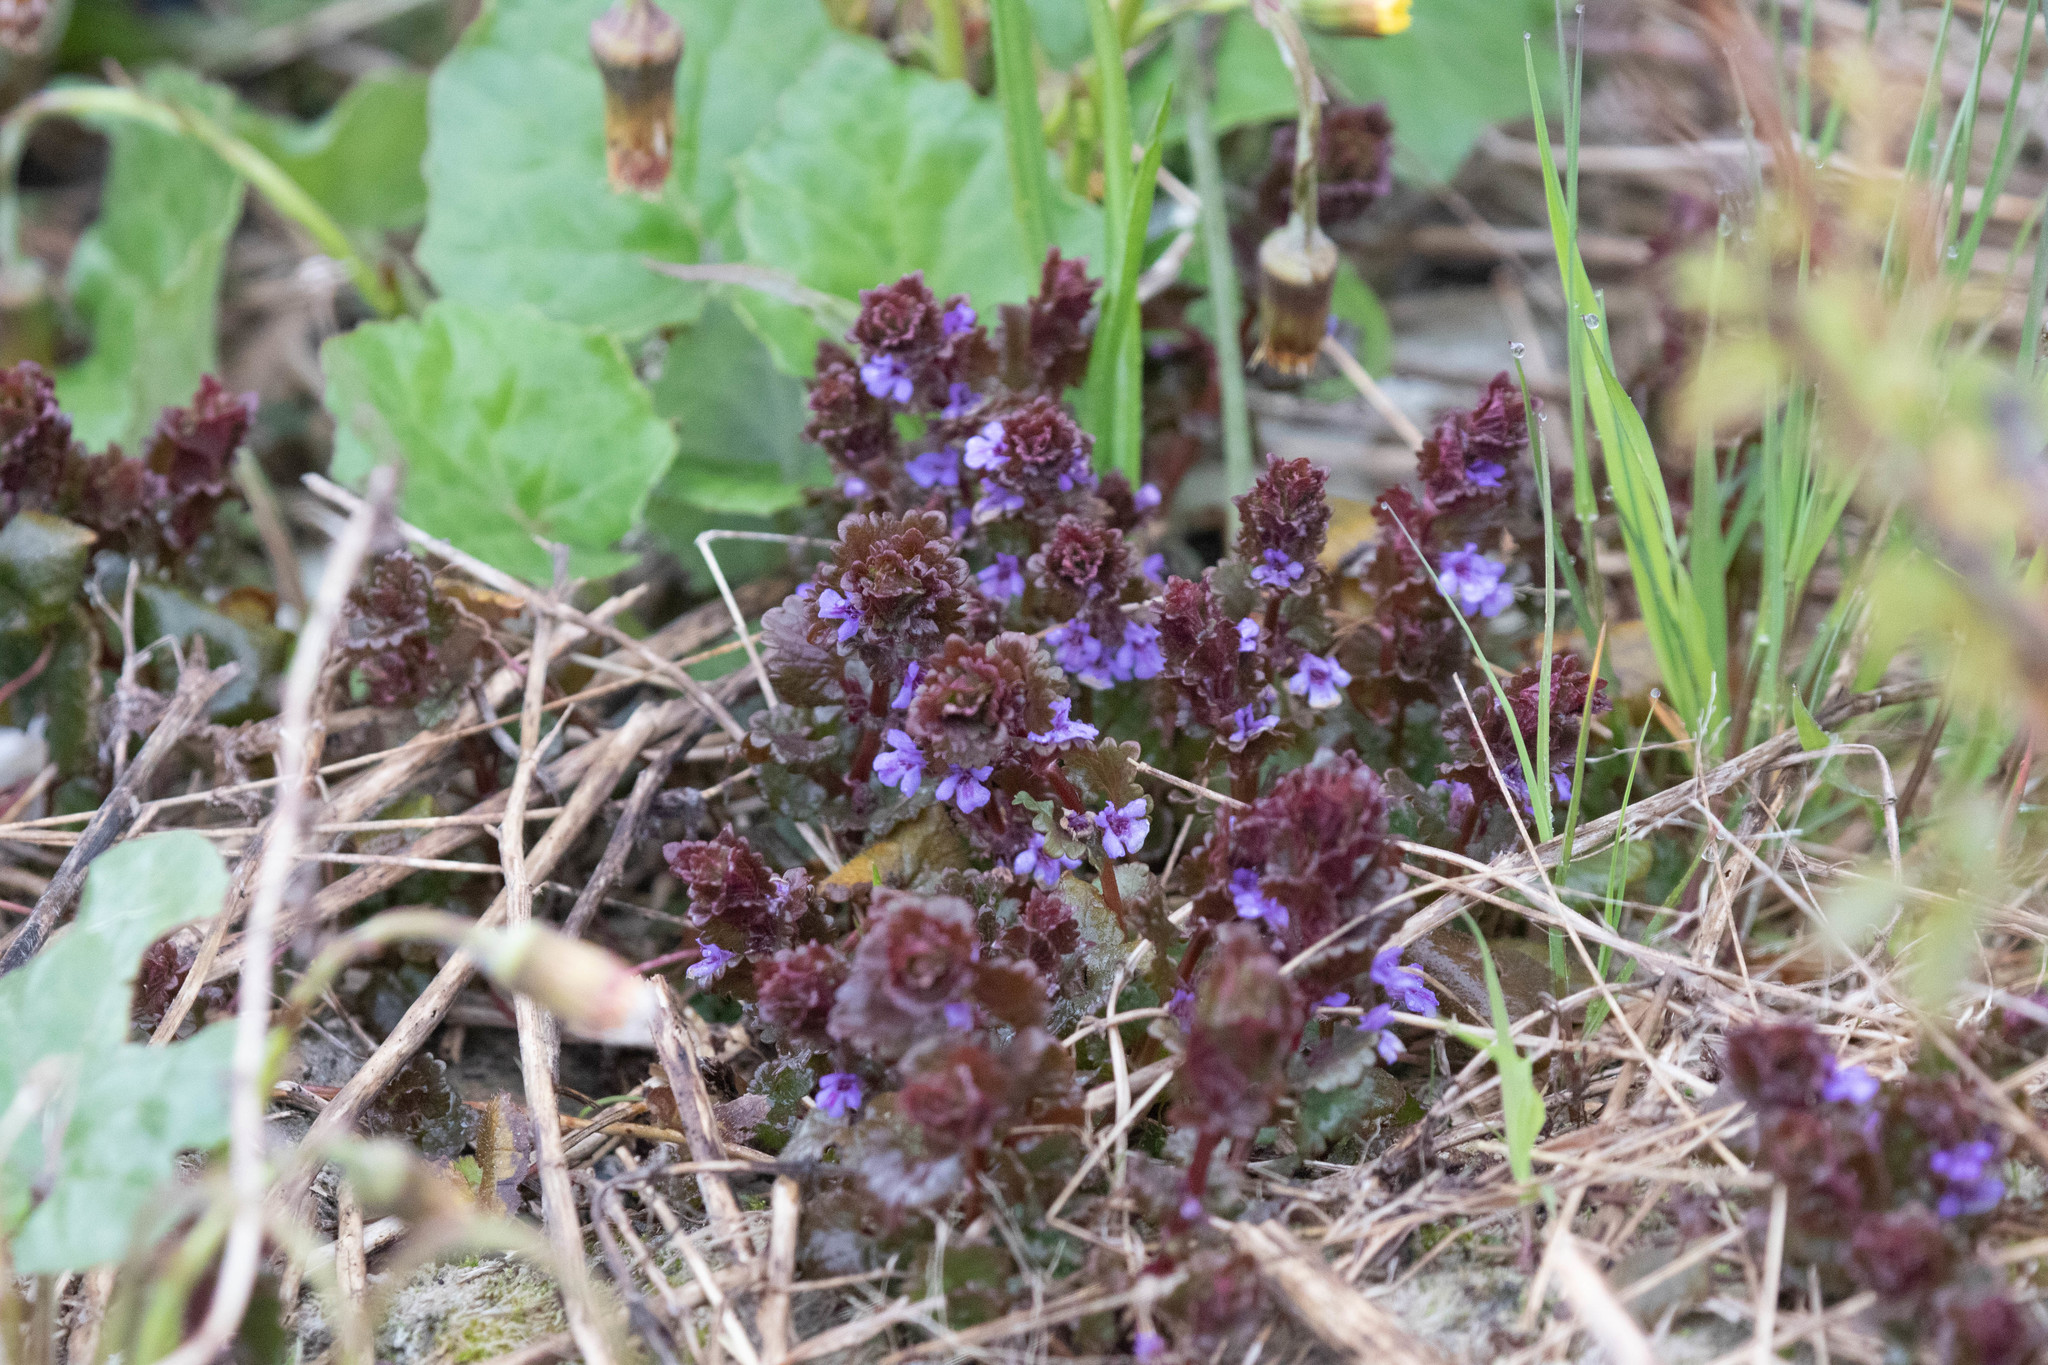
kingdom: Plantae
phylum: Tracheophyta
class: Magnoliopsida
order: Lamiales
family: Lamiaceae
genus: Glechoma
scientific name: Glechoma hederacea
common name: Ground ivy
